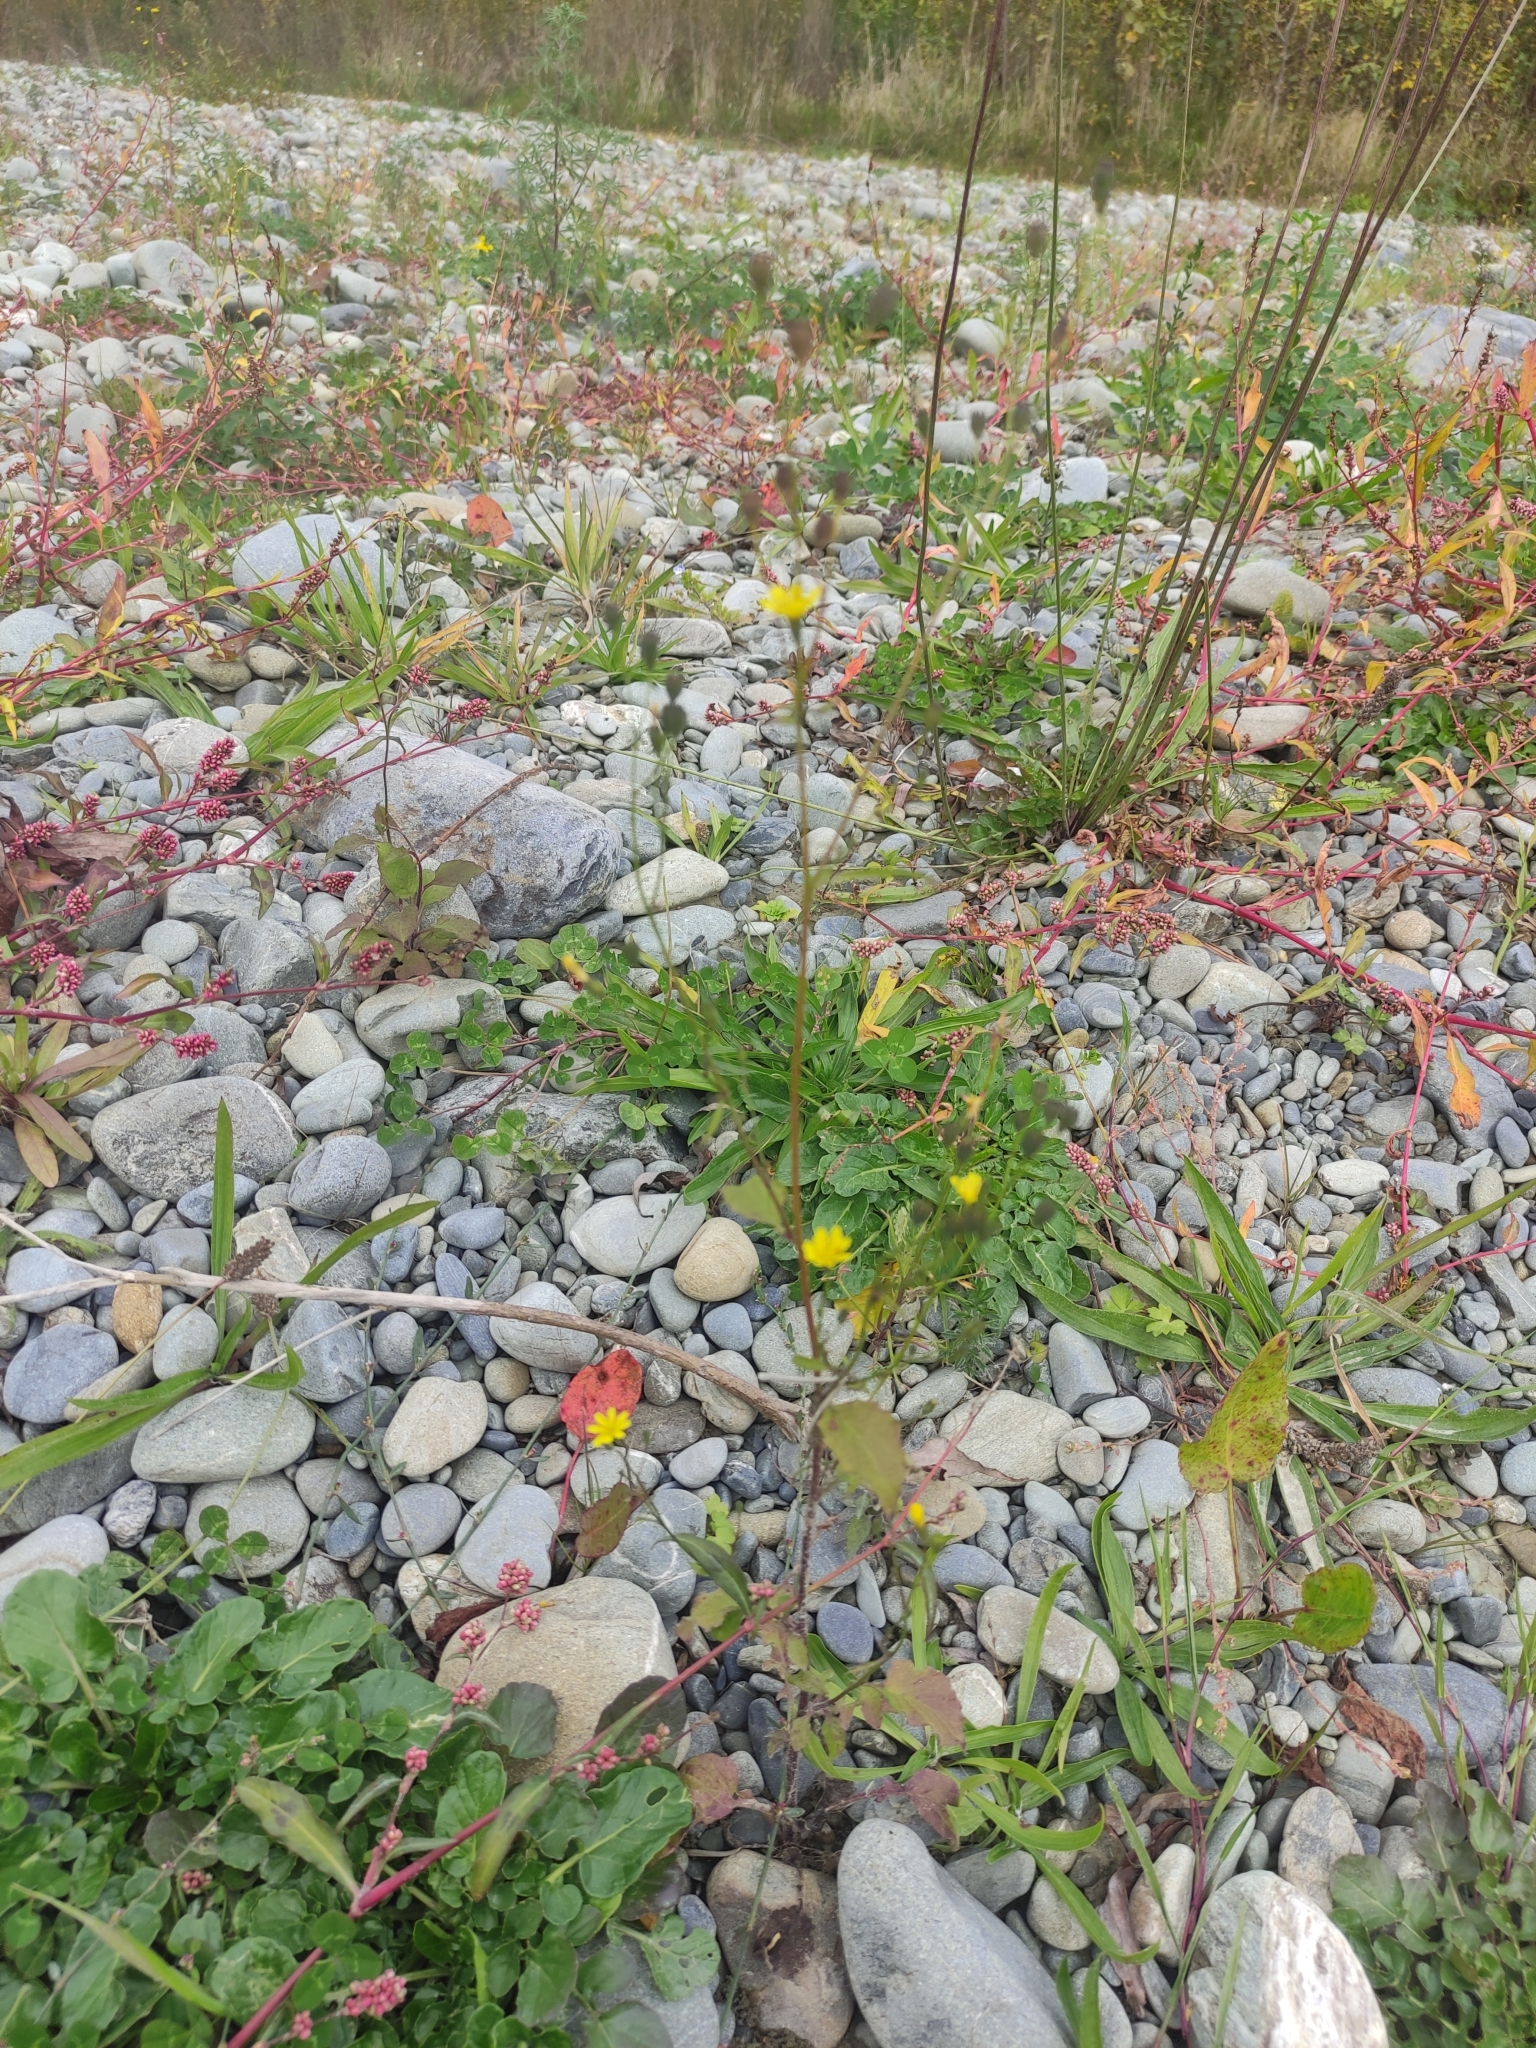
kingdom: Plantae
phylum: Tracheophyta
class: Magnoliopsida
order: Asterales
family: Asteraceae
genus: Crepis
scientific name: Crepis capillaris
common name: Smooth hawksbeard
